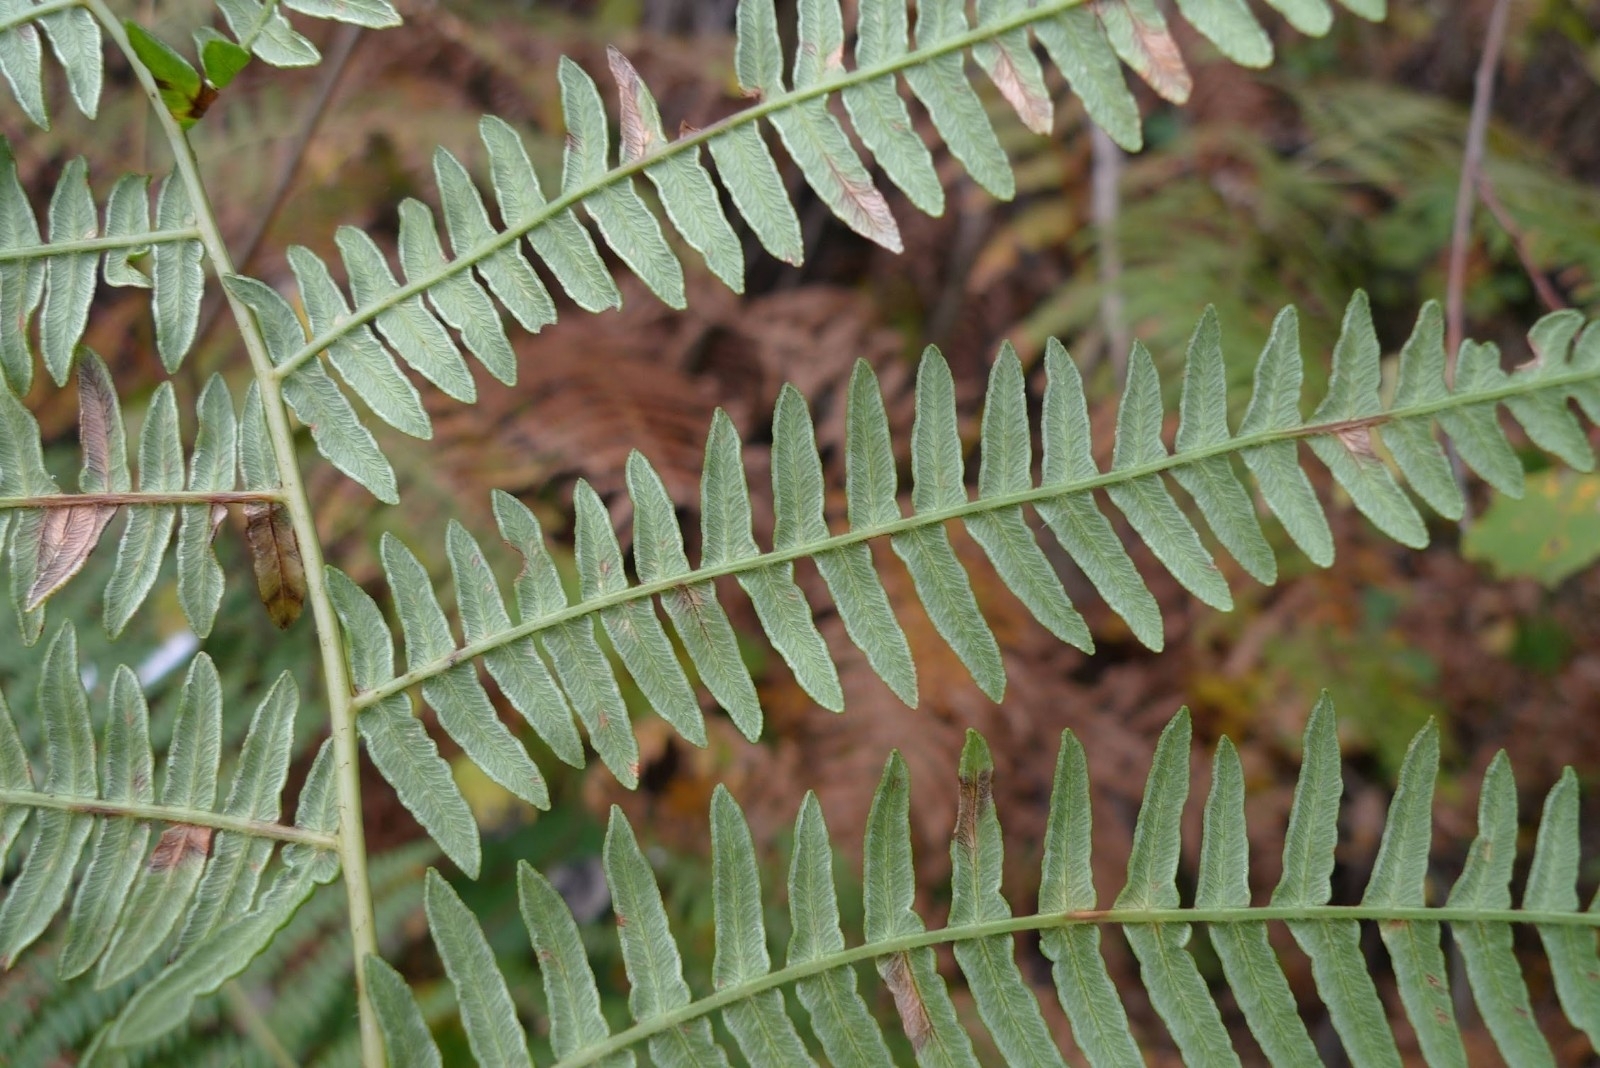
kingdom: Plantae
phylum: Tracheophyta
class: Polypodiopsida
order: Polypodiales
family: Dennstaedtiaceae
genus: Pteridium
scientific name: Pteridium aquilinum
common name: Bracken
